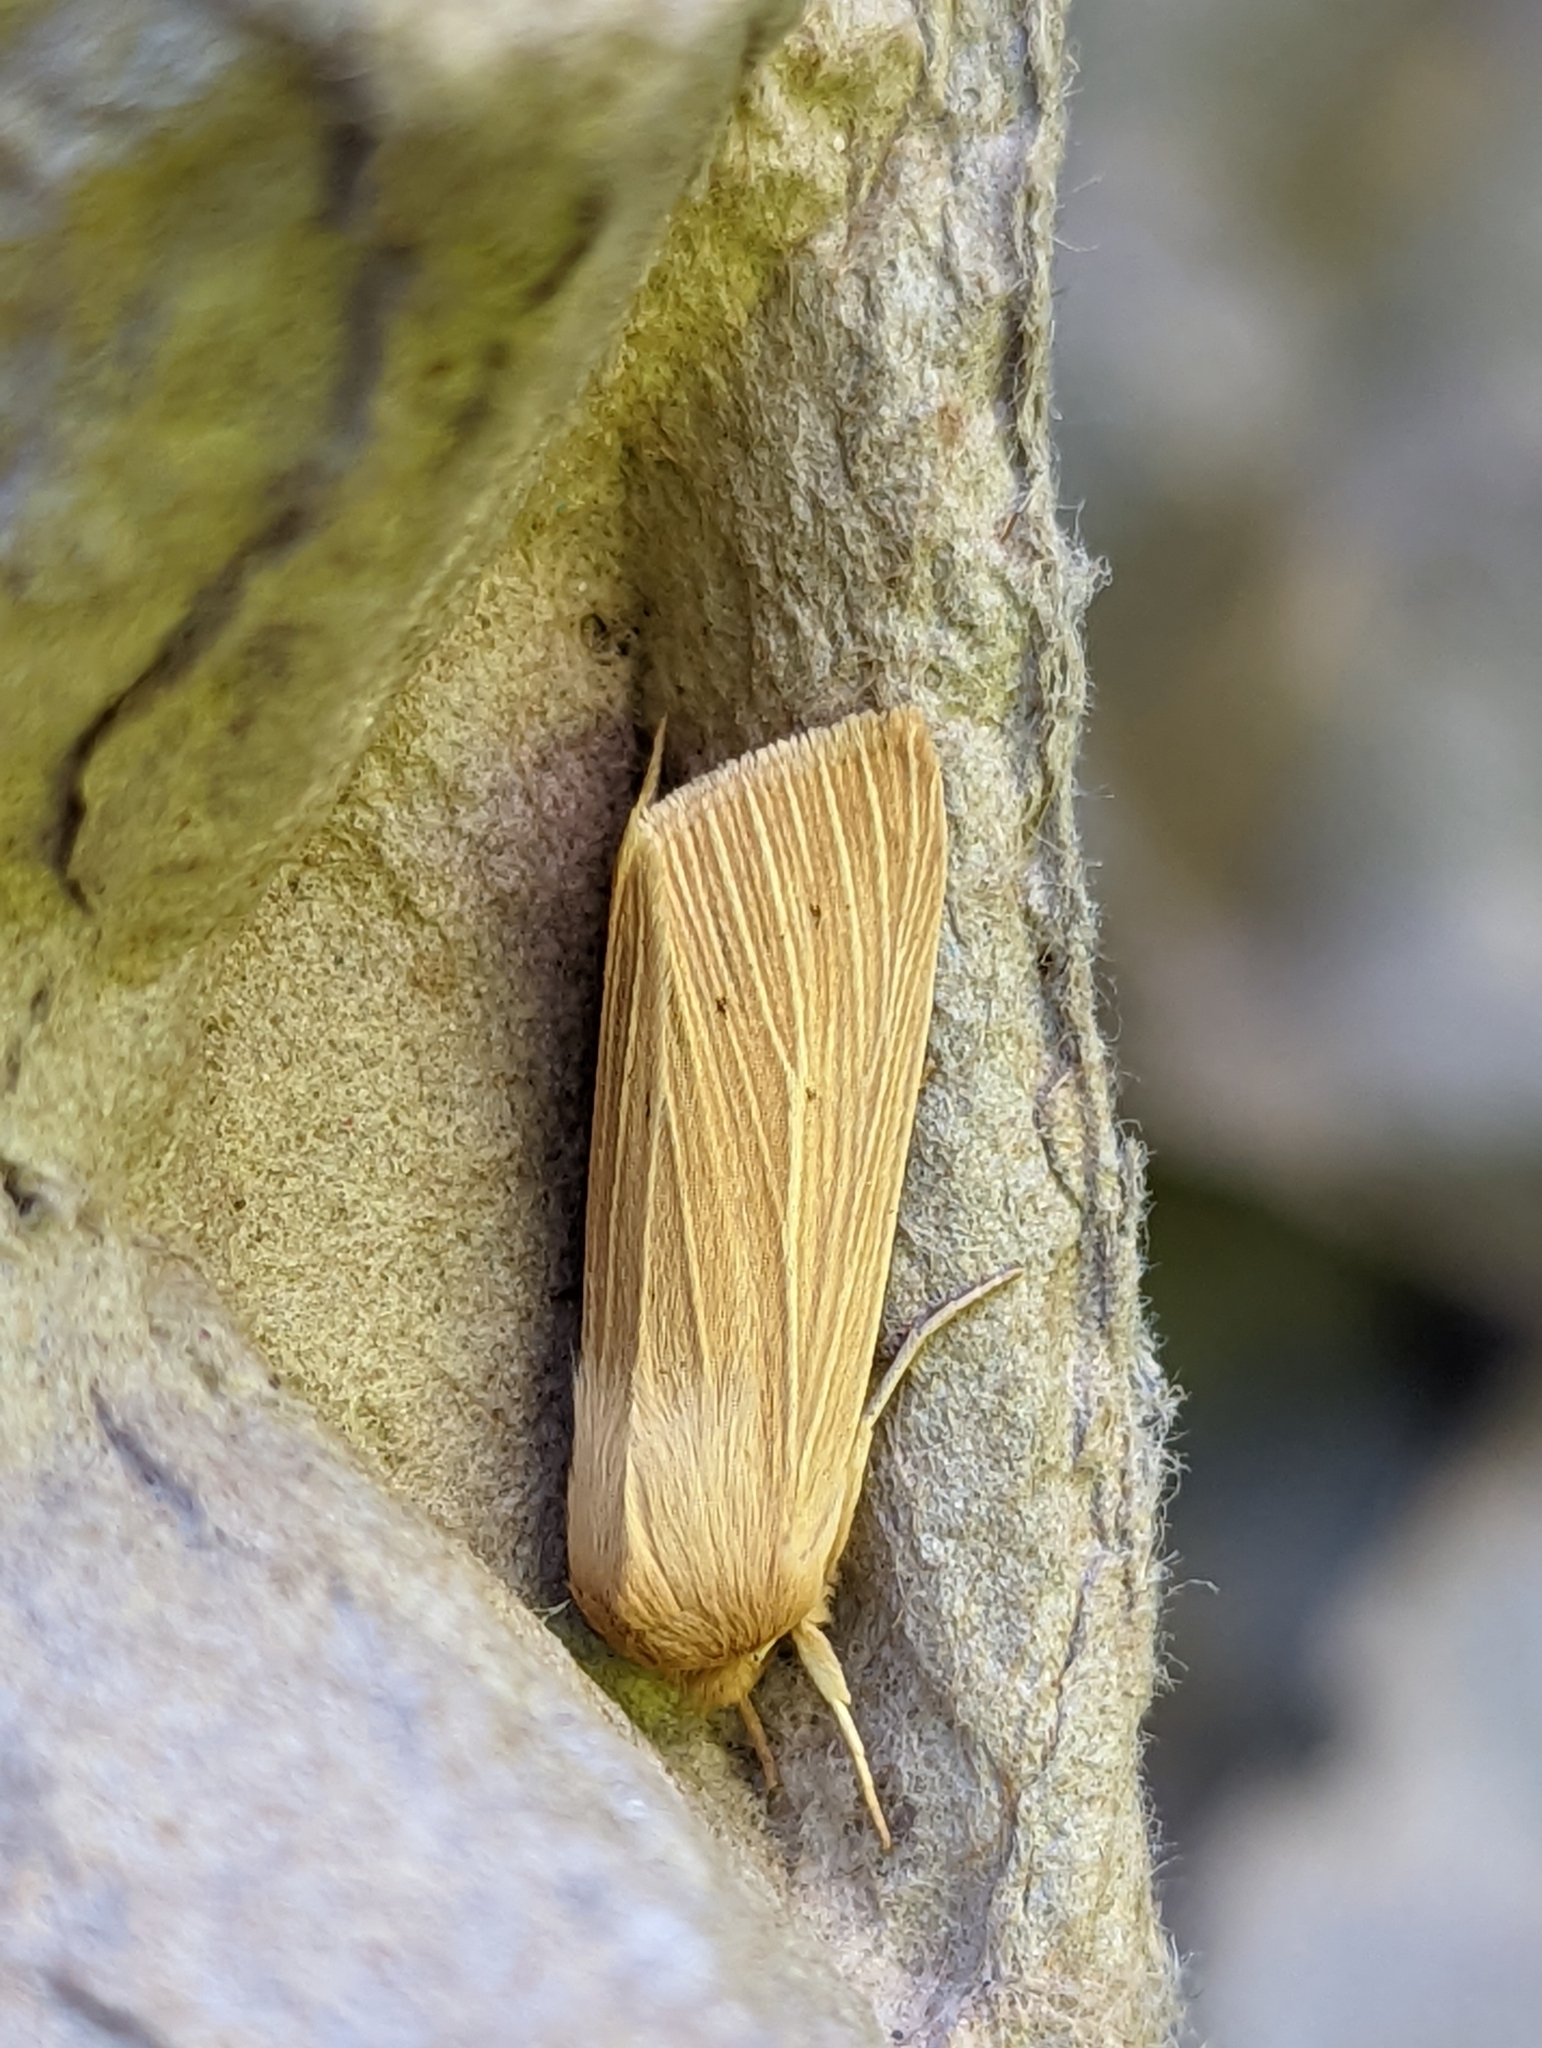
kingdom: Animalia
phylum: Arthropoda
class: Insecta
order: Lepidoptera
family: Noctuidae
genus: Mythimna
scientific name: Mythimna pallens
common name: Common wainscot
